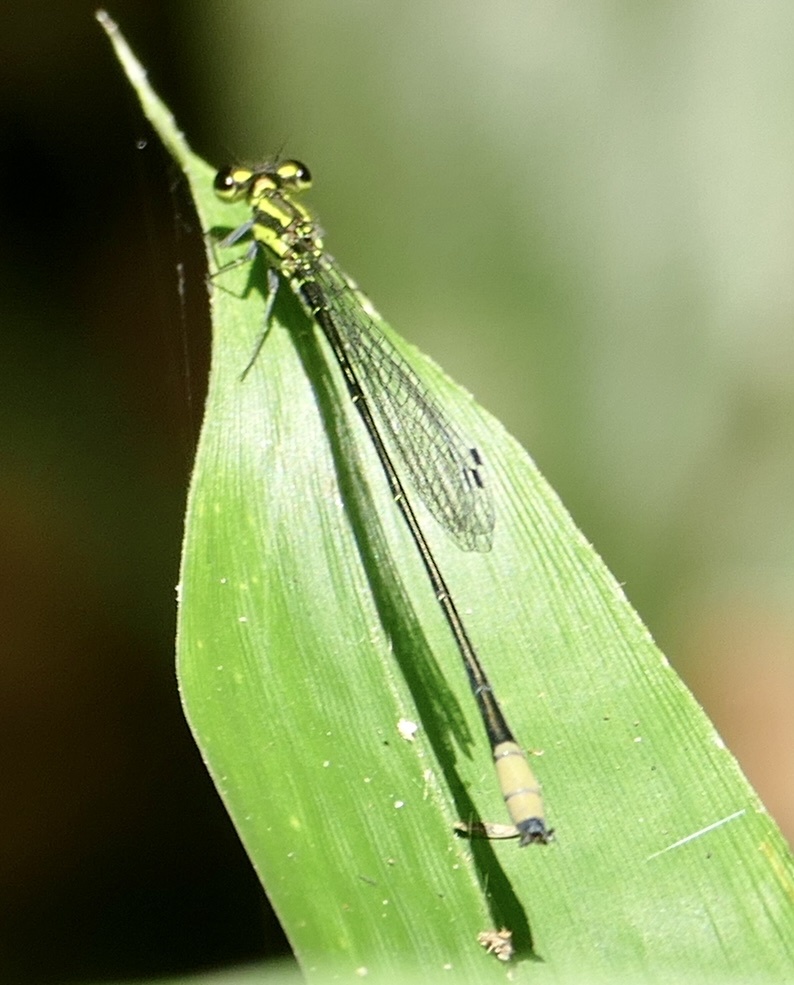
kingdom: Animalia
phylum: Arthropoda
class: Insecta
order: Odonata
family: Coenagrionidae
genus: Pseudagrion
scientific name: Pseudagrion melanicterum
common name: Farmbush sprite
